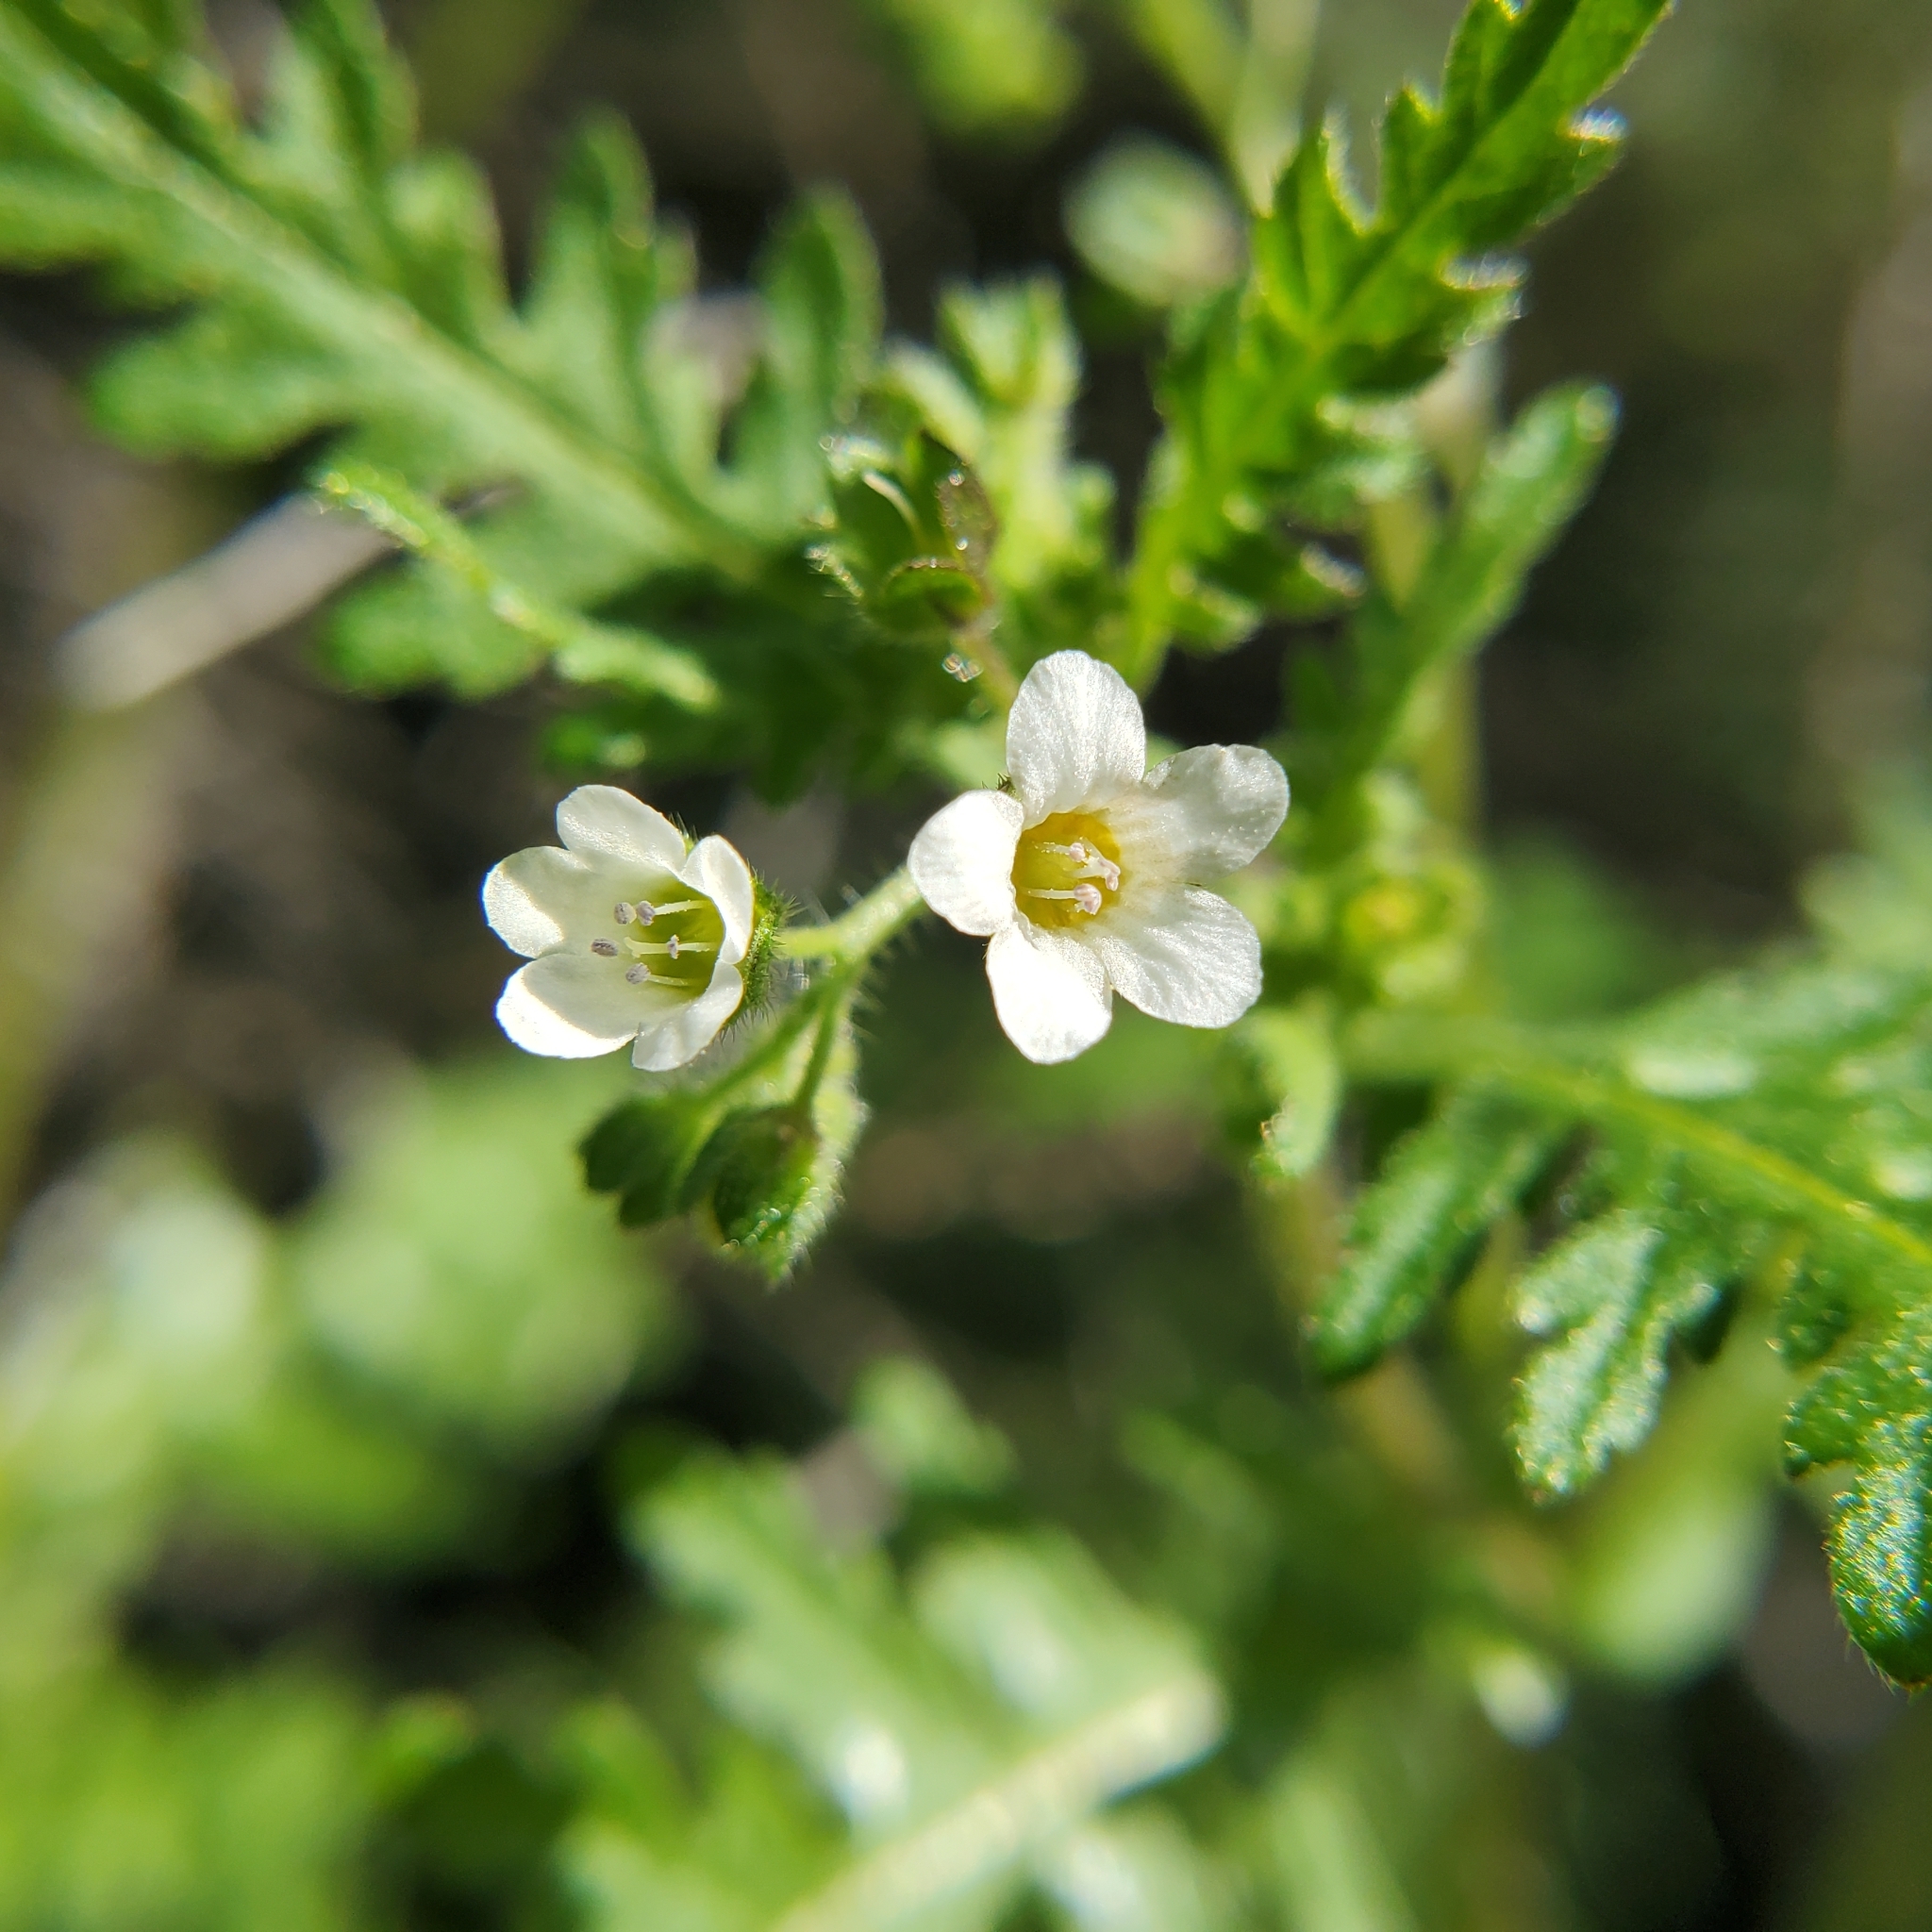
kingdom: Plantae
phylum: Tracheophyta
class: Magnoliopsida
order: Boraginales
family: Hydrophyllaceae
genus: Eucrypta
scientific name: Eucrypta chrysanthemifolia
